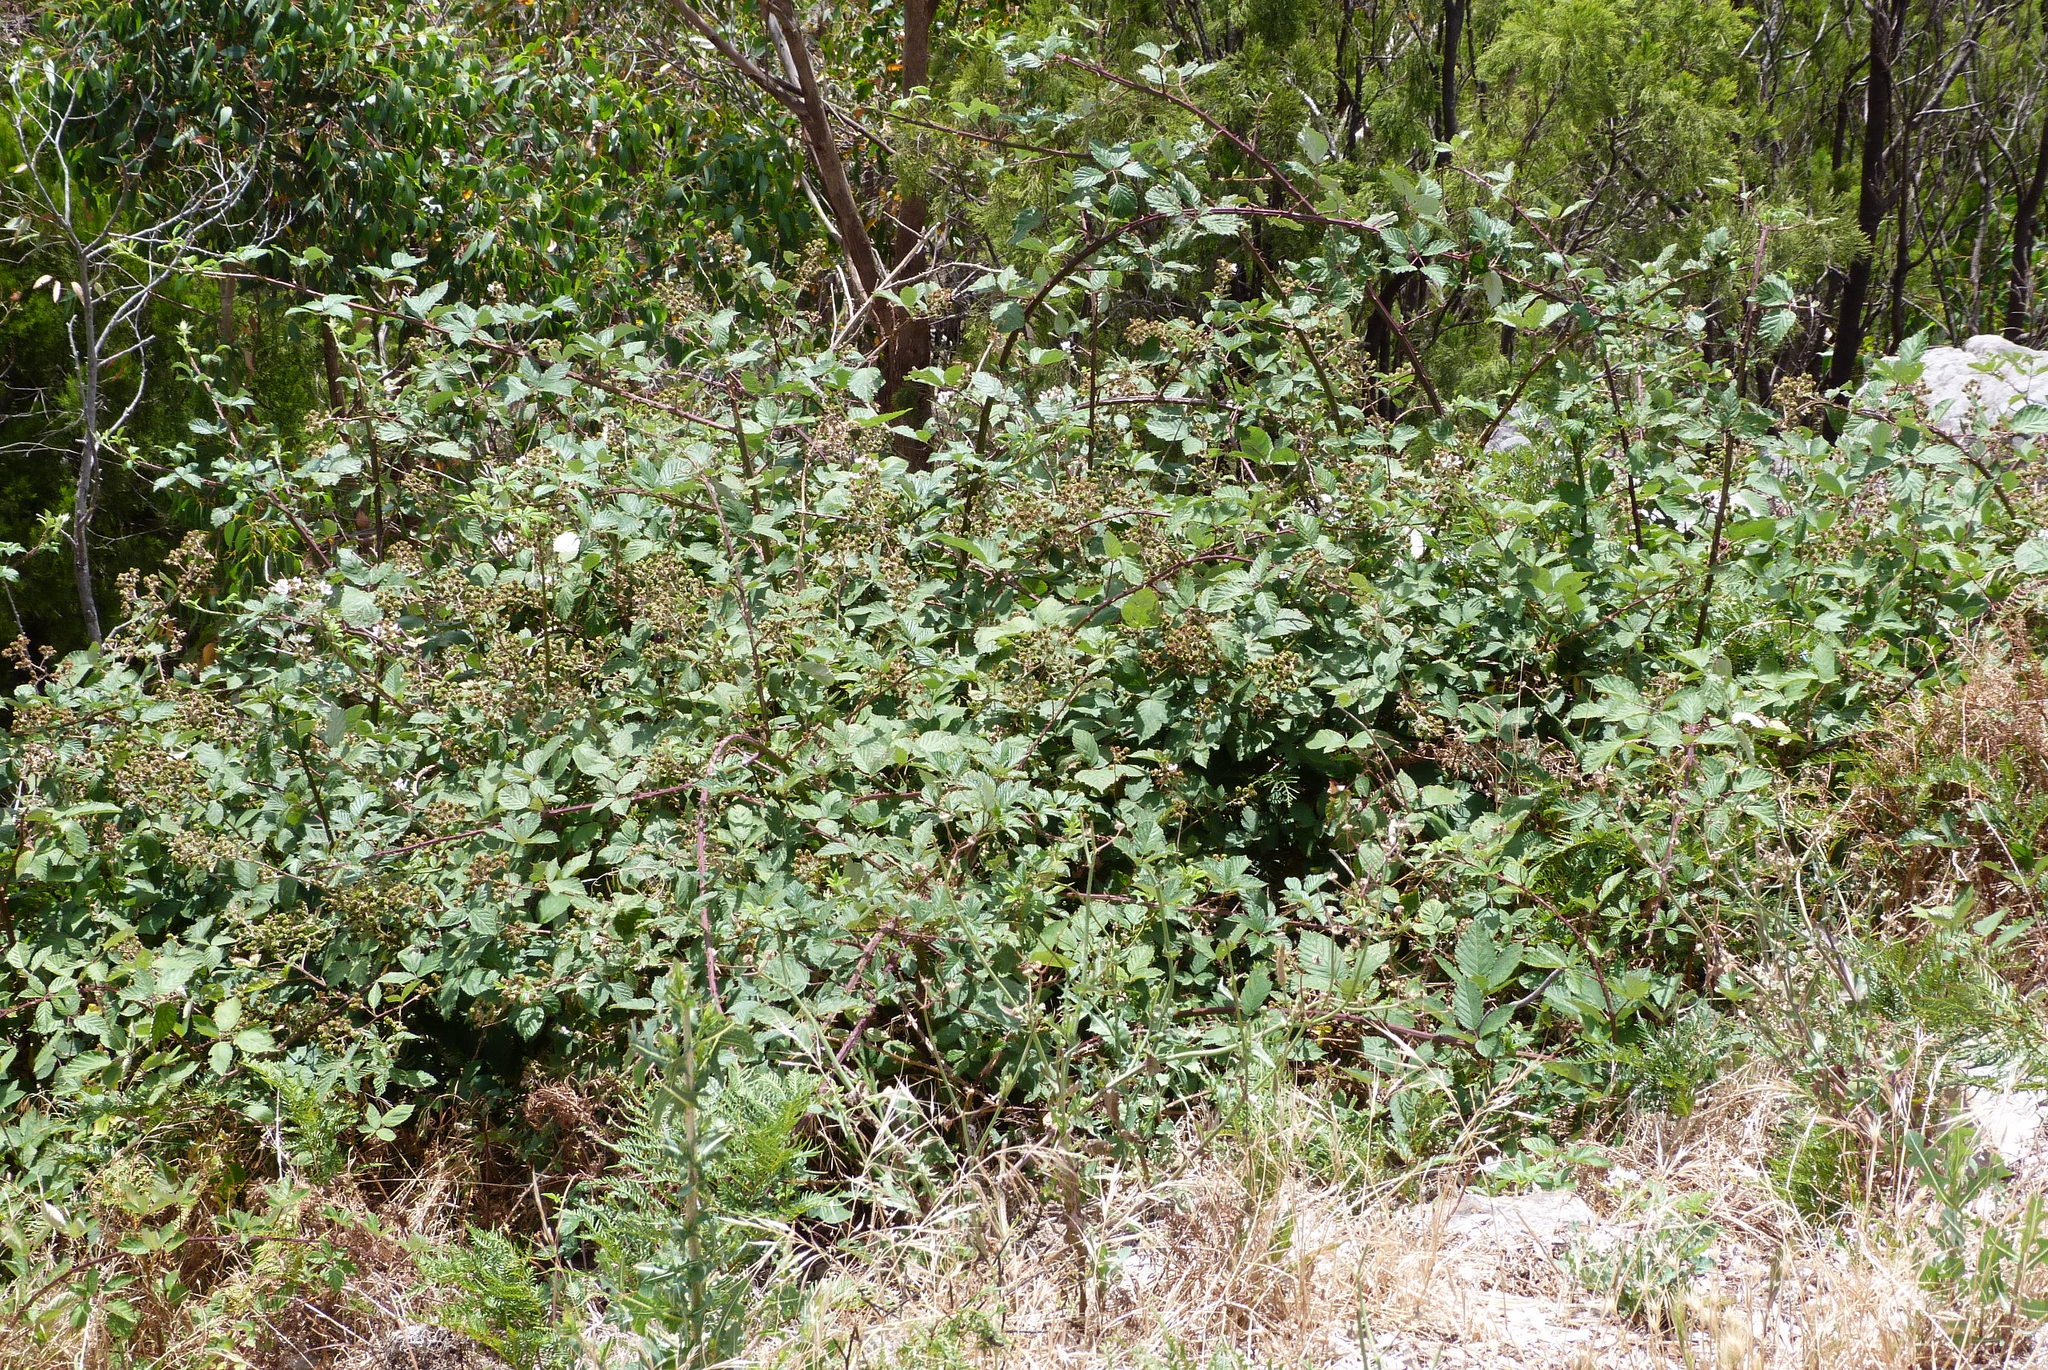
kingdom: Plantae
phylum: Tracheophyta
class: Magnoliopsida
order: Rosales
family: Rosaceae
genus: Rubus
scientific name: Rubus
